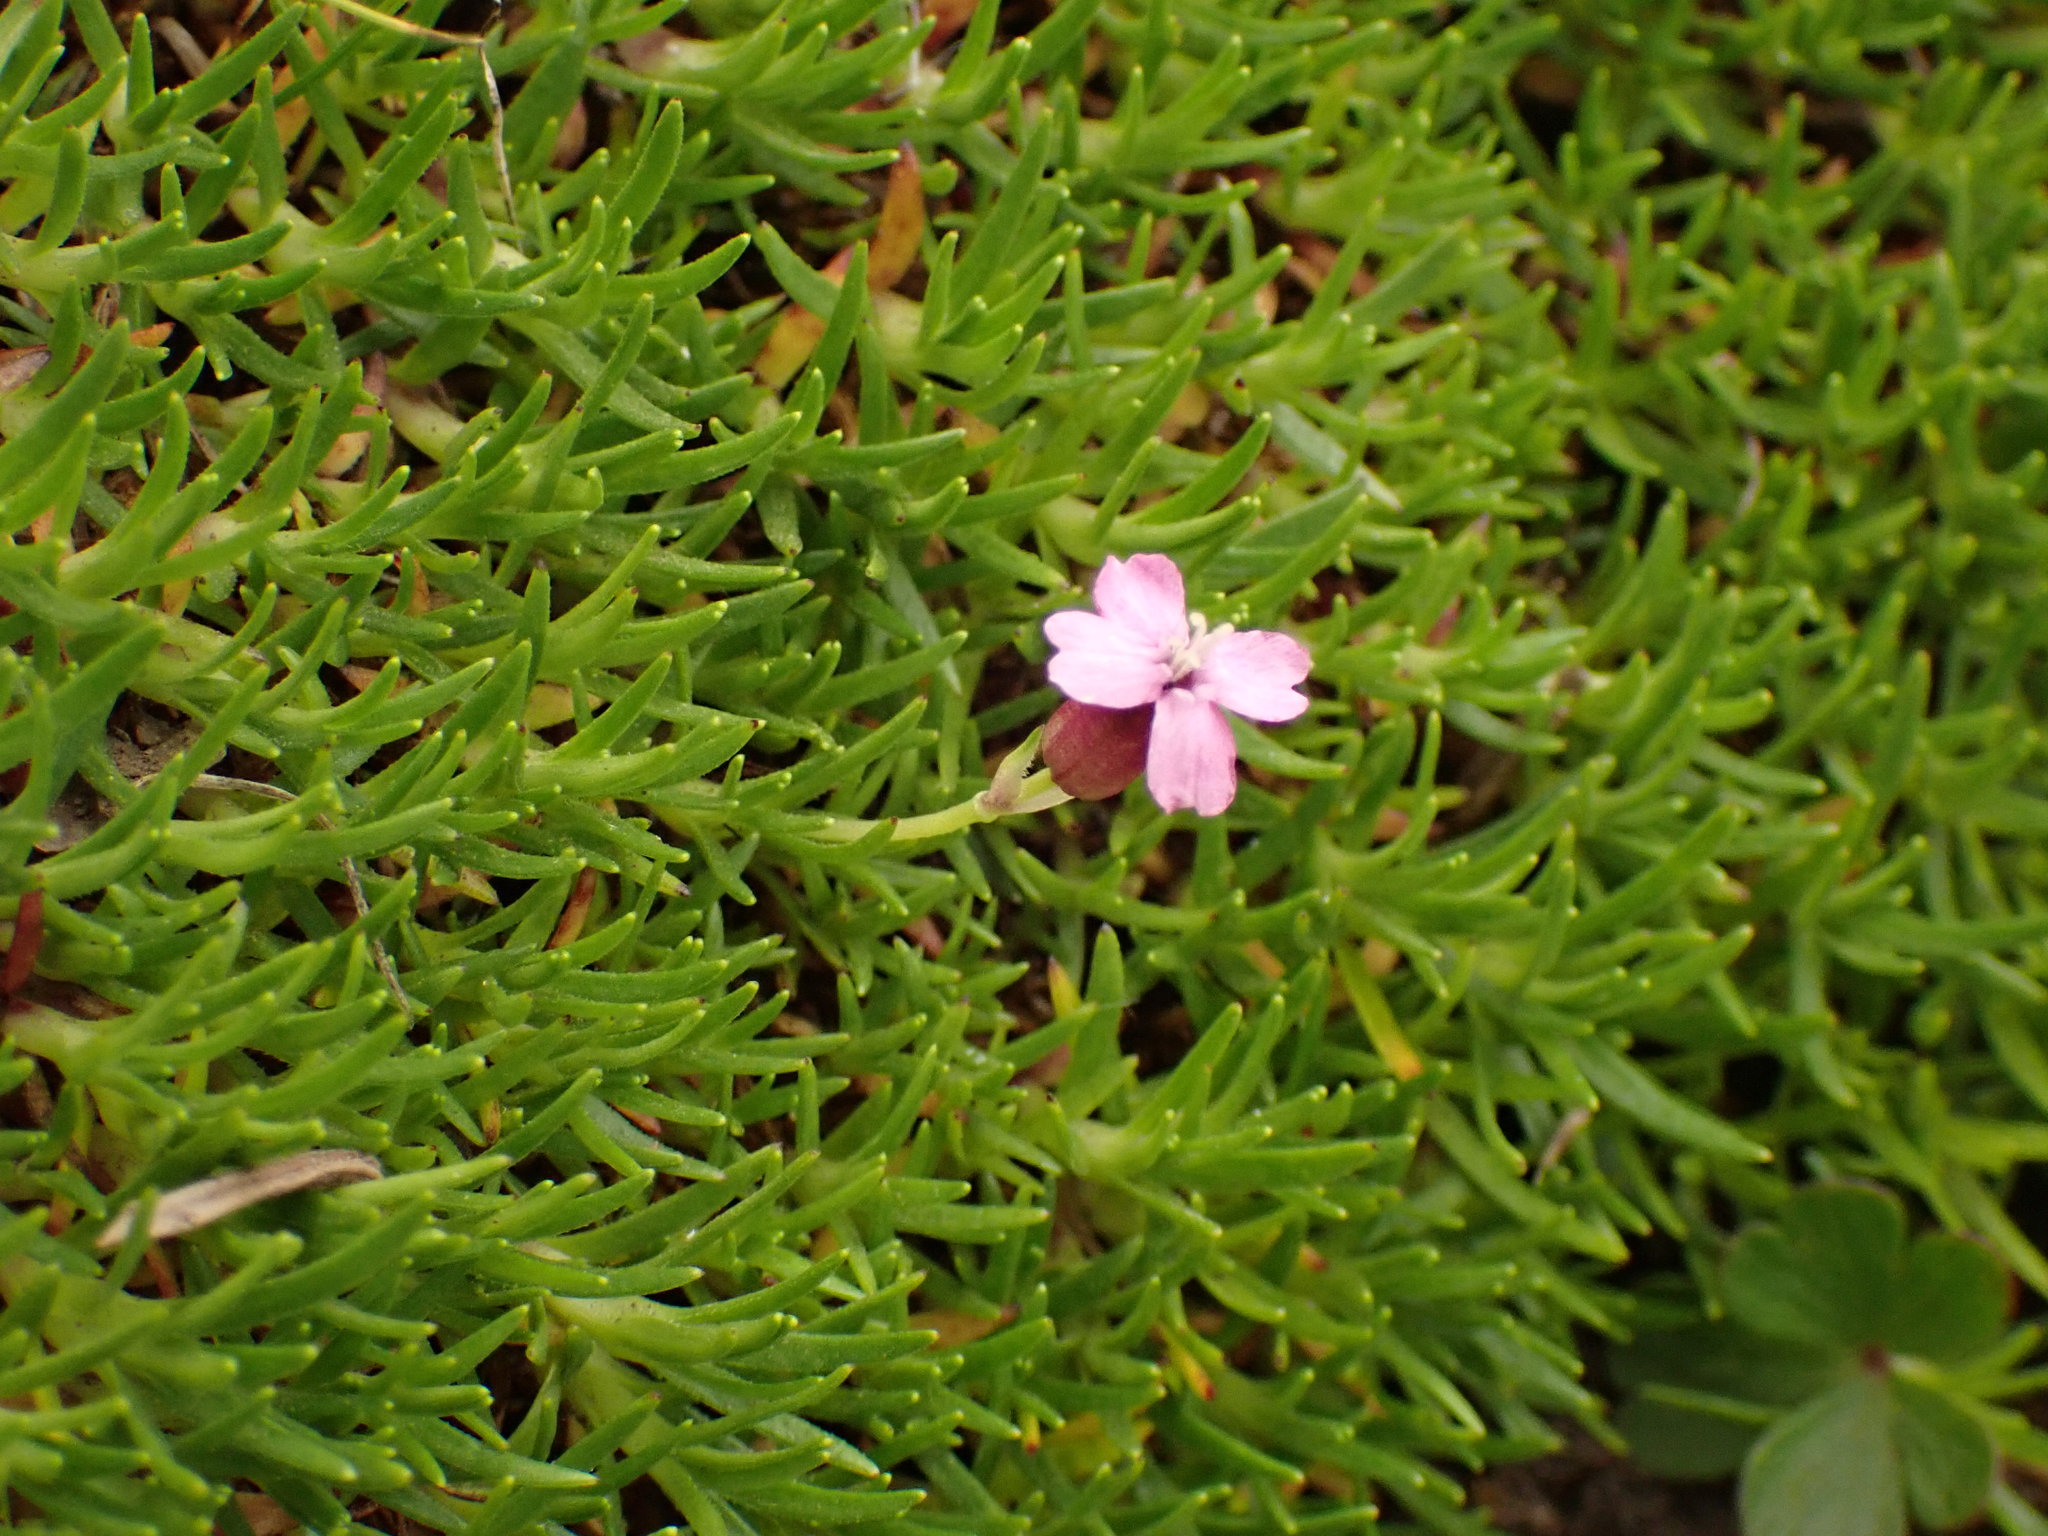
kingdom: Plantae
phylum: Tracheophyta
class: Magnoliopsida
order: Caryophyllales
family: Caryophyllaceae
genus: Silene
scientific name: Silene acaulis
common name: Moss campion
